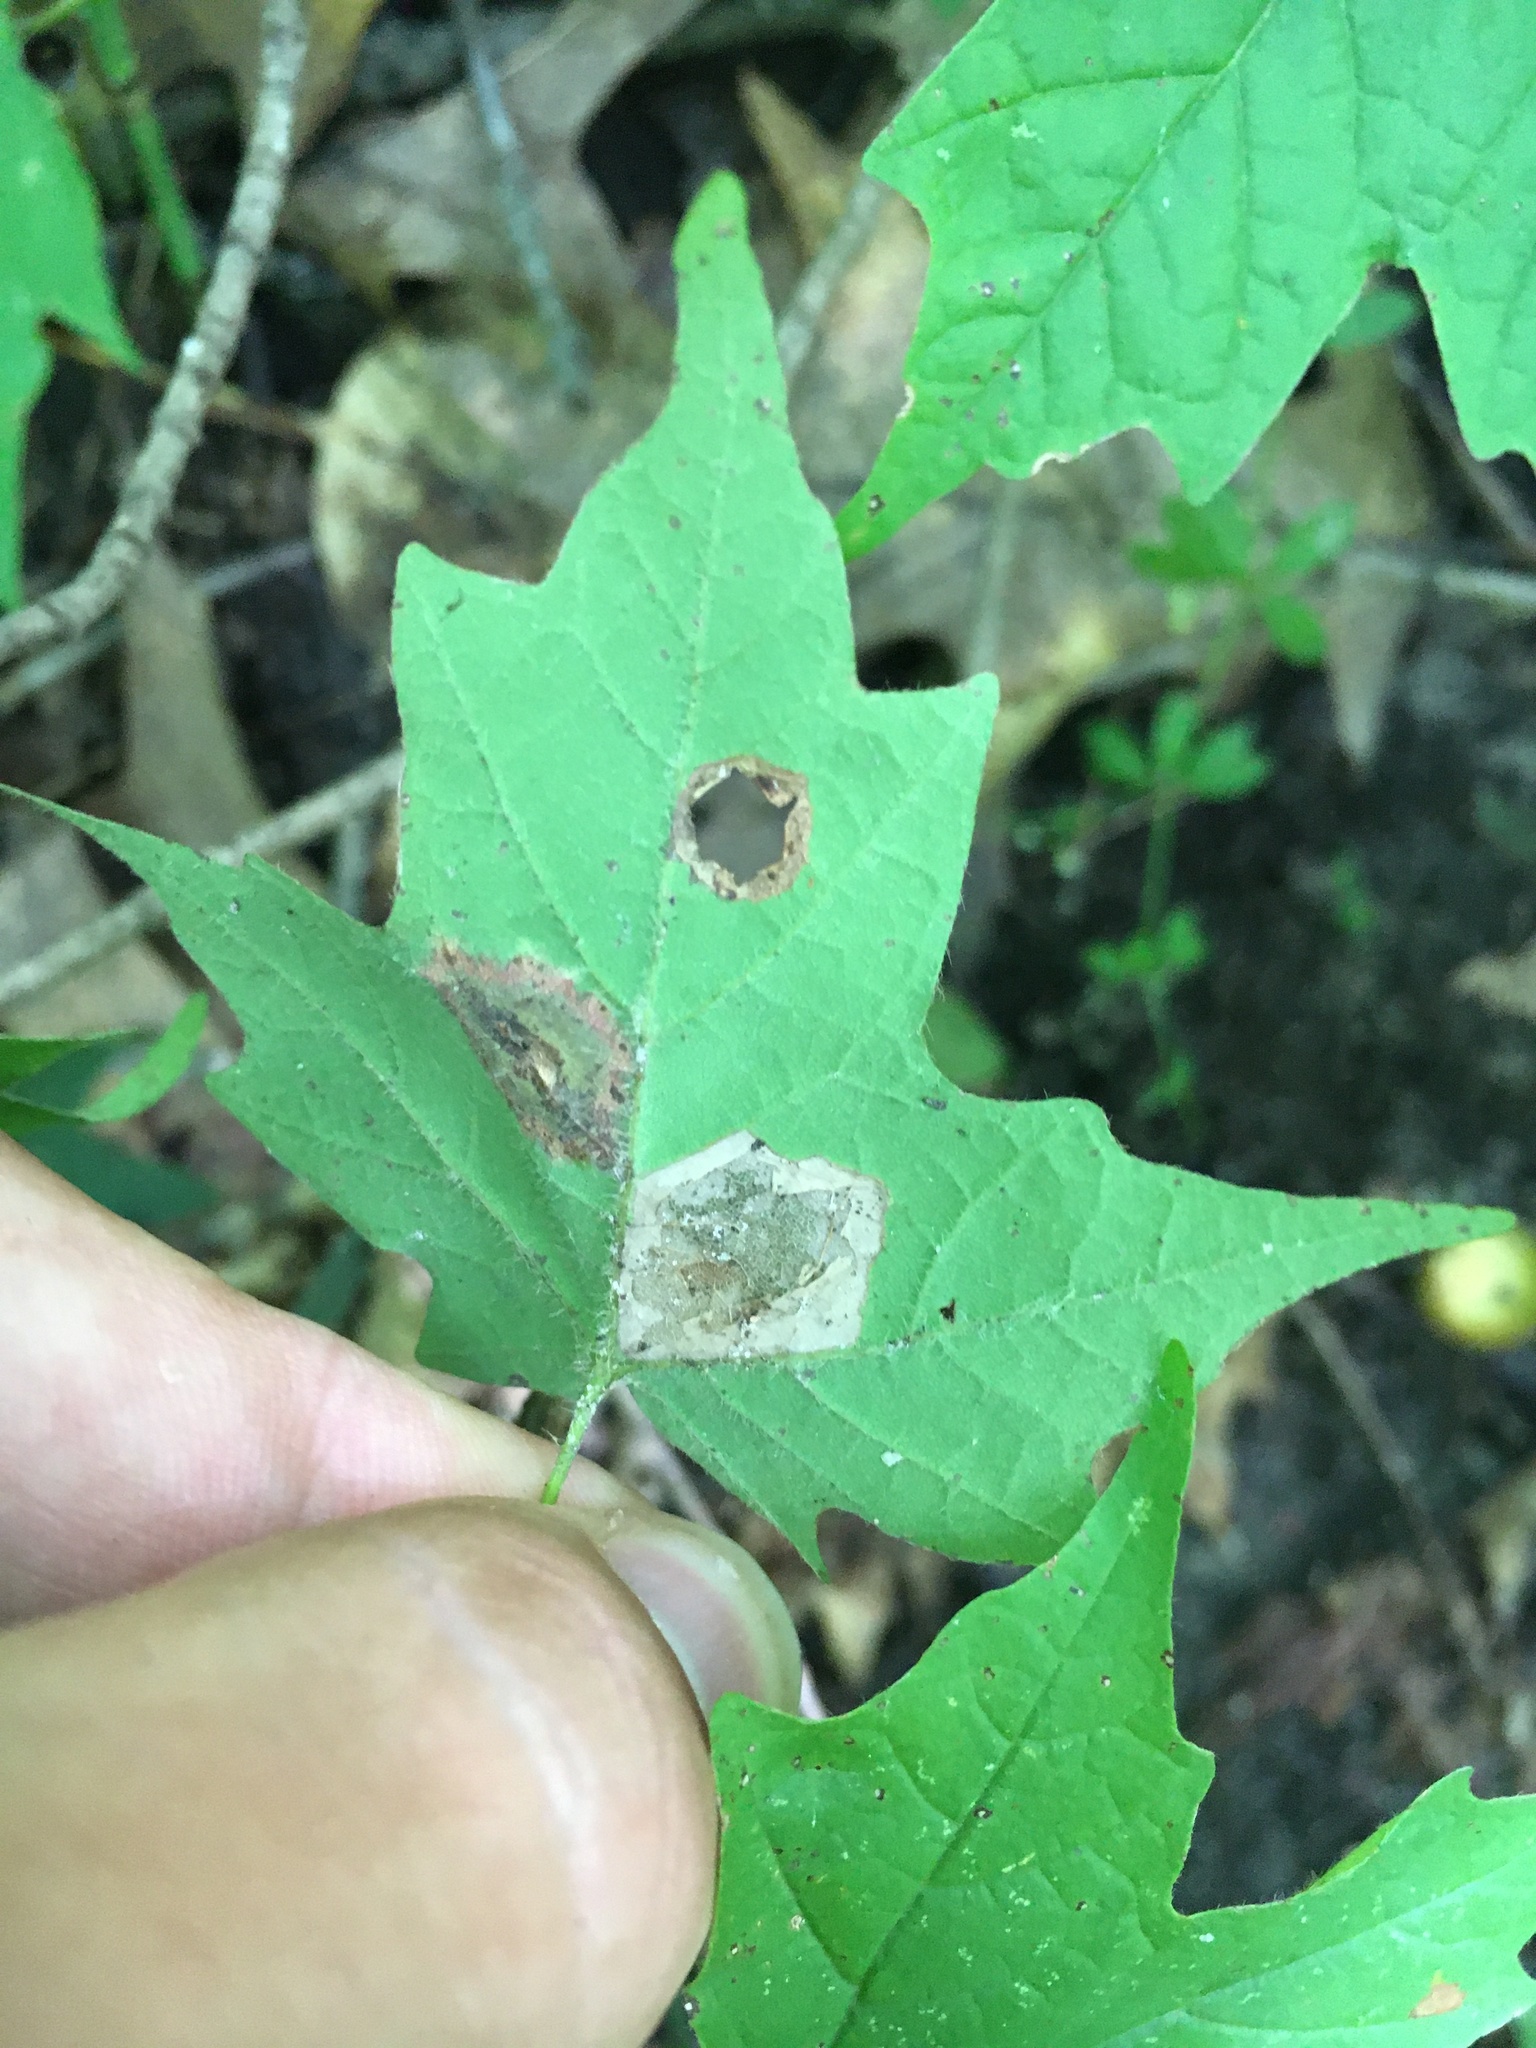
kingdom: Animalia
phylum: Arthropoda
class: Insecta
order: Lepidoptera
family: Gracillariidae
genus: Phyllonorycter
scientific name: Phyllonorycter
